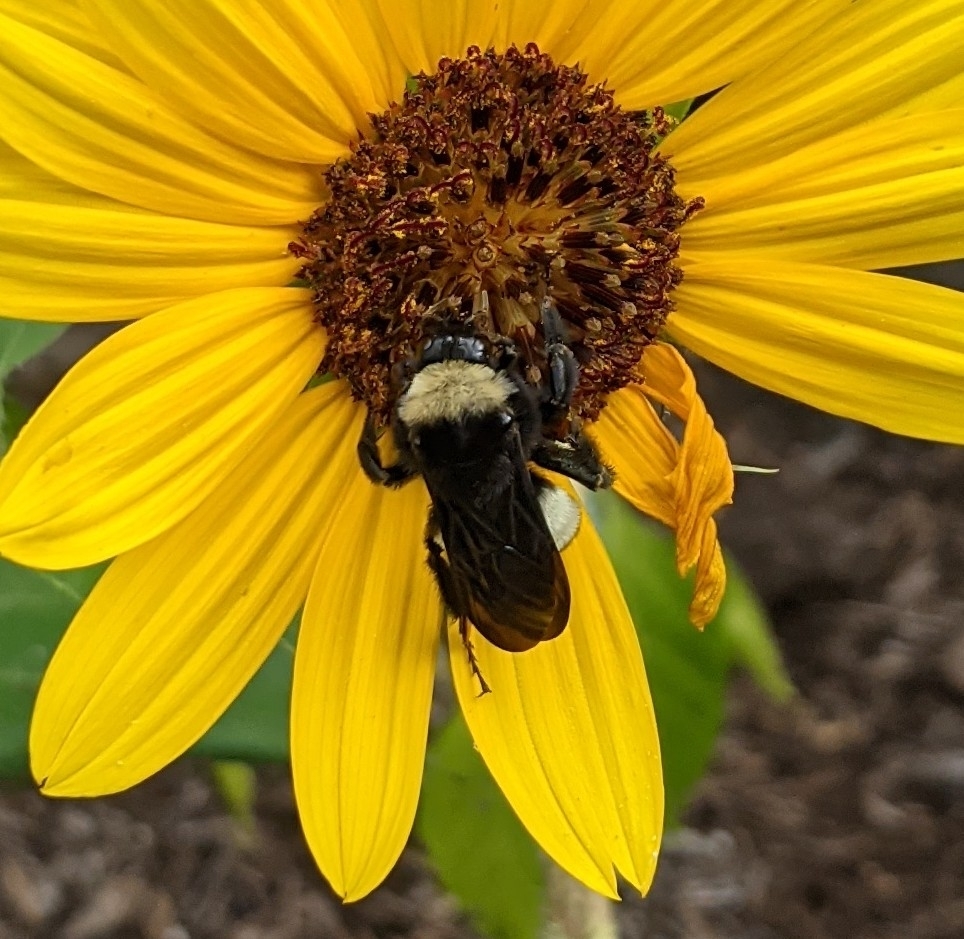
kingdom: Animalia
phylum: Arthropoda
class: Insecta
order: Hymenoptera
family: Apidae
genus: Bombus
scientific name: Bombus pensylvanicus
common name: Bumble bee
